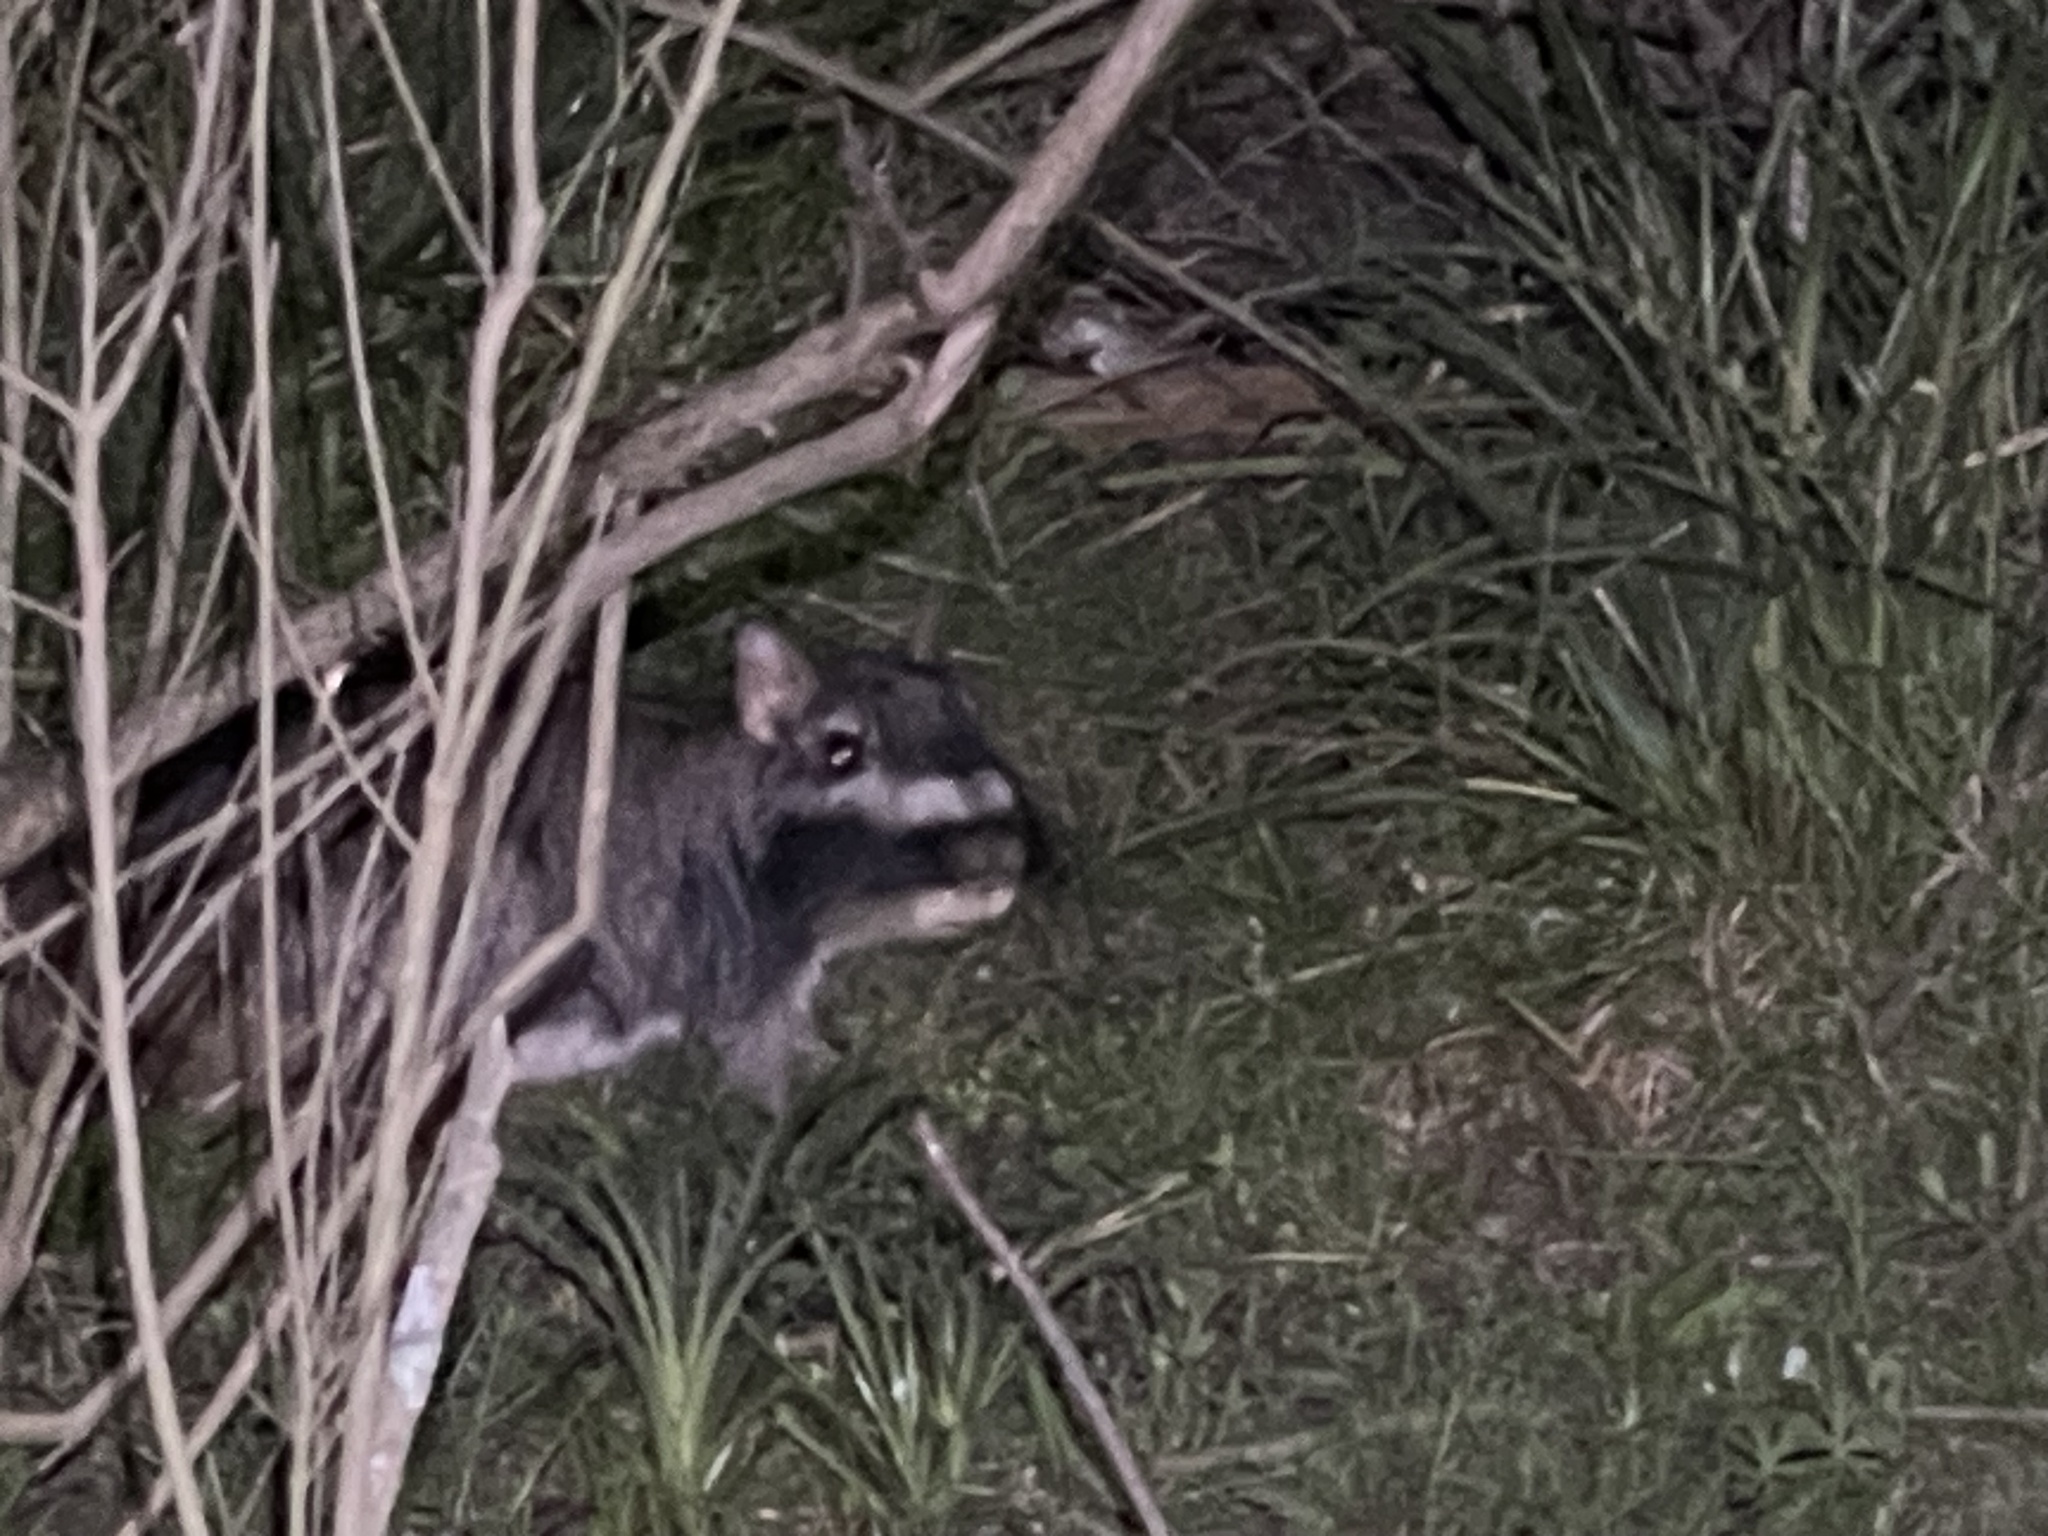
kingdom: Animalia
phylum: Chordata
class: Mammalia
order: Rodentia
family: Chinchillidae
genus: Lagostomus
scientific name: Lagostomus maximus
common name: Plains viscacha
